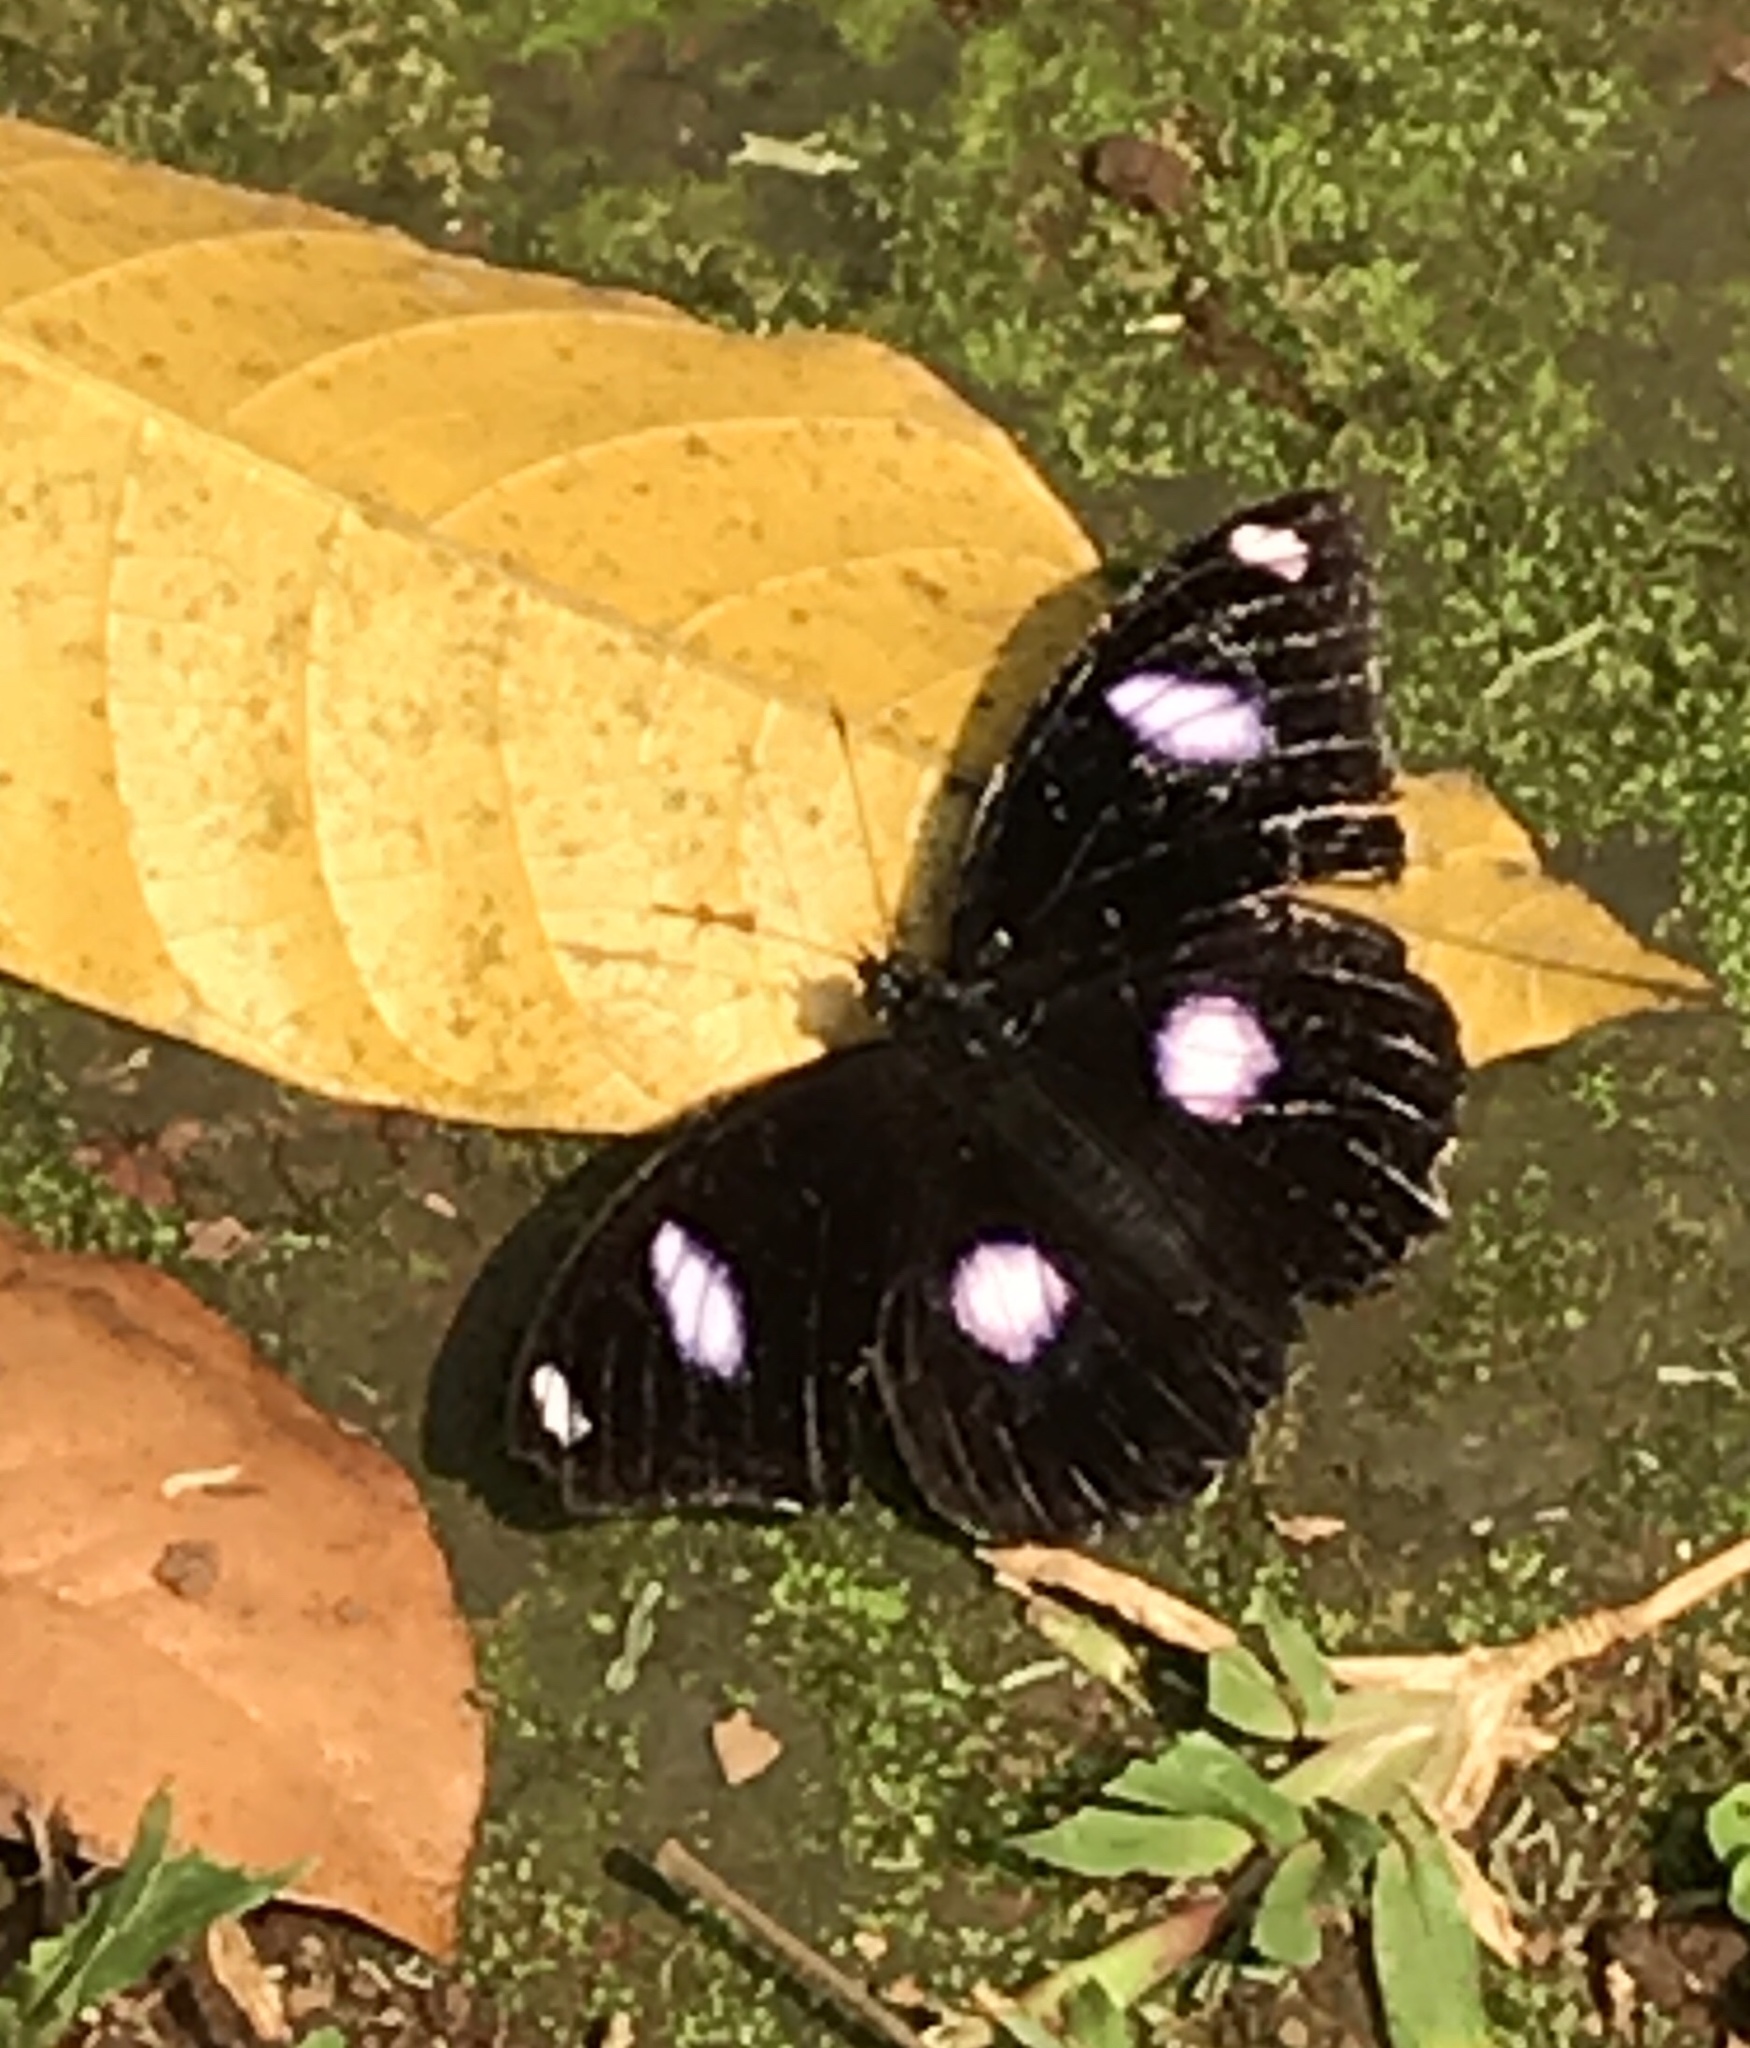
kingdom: Animalia
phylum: Arthropoda
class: Insecta
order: Lepidoptera
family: Nymphalidae
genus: Hypolimnas
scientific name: Hypolimnas bolina
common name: Great eggfly
